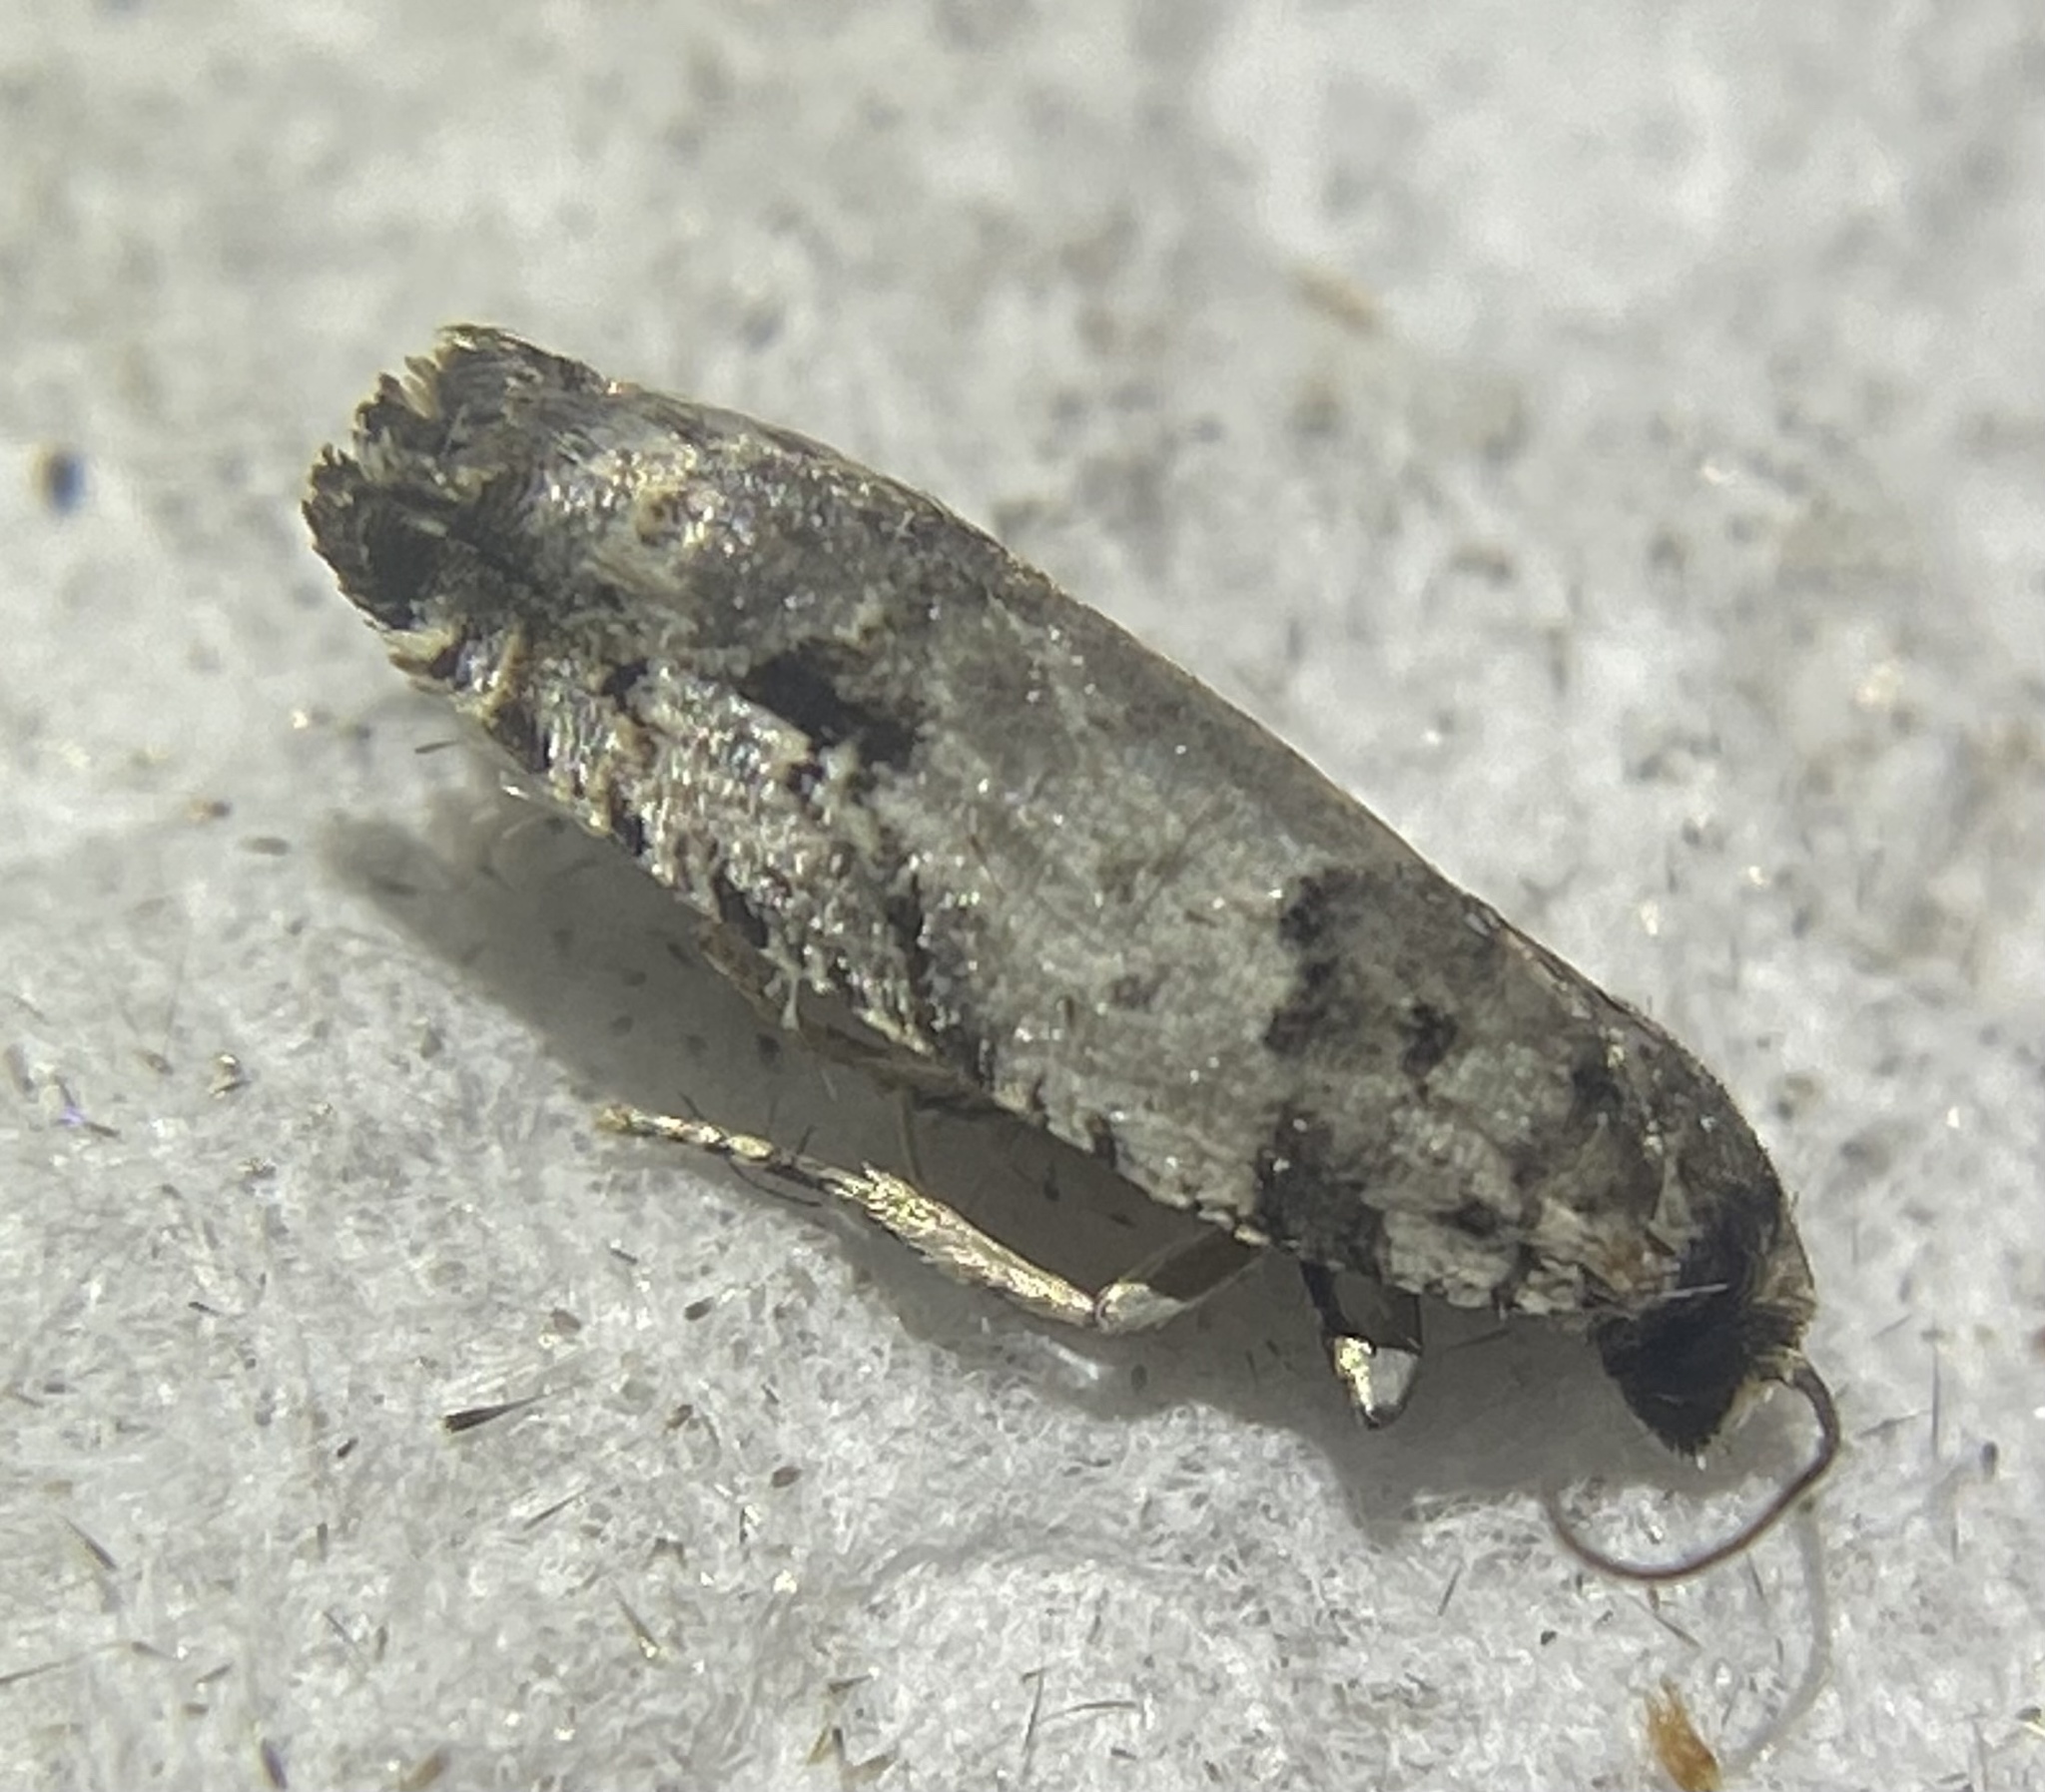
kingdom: Animalia
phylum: Arthropoda
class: Insecta
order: Lepidoptera
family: Tortricidae
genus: Rhopobota
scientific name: Rhopobota dietziana
